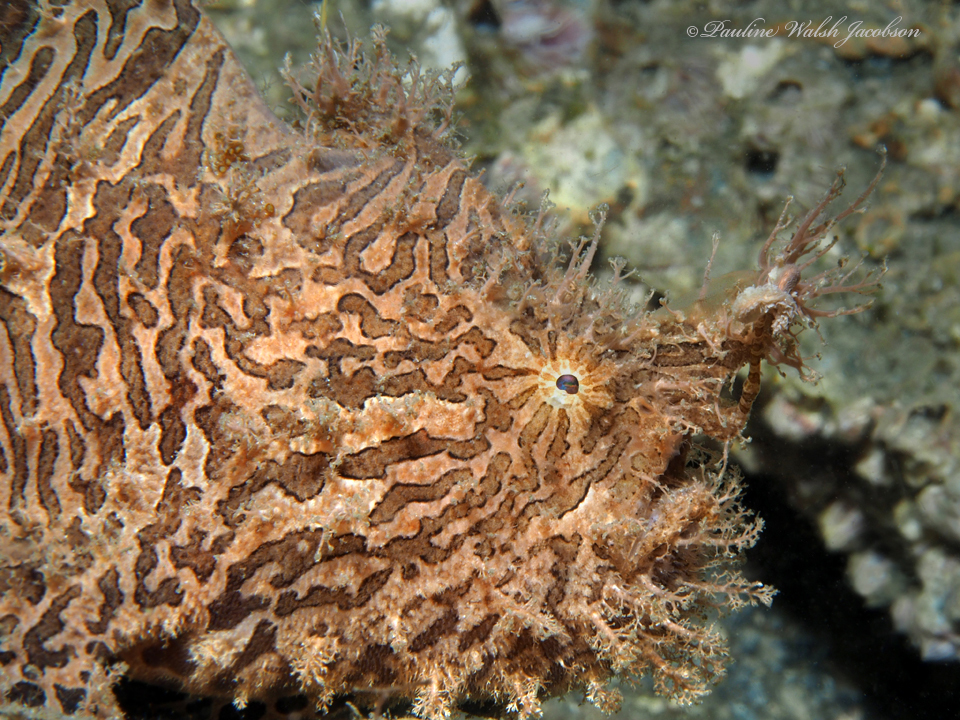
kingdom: Animalia
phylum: Chordata
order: Lophiiformes
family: Antennariidae
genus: Antennarius
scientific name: Antennarius striatus
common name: Striated frogfish
